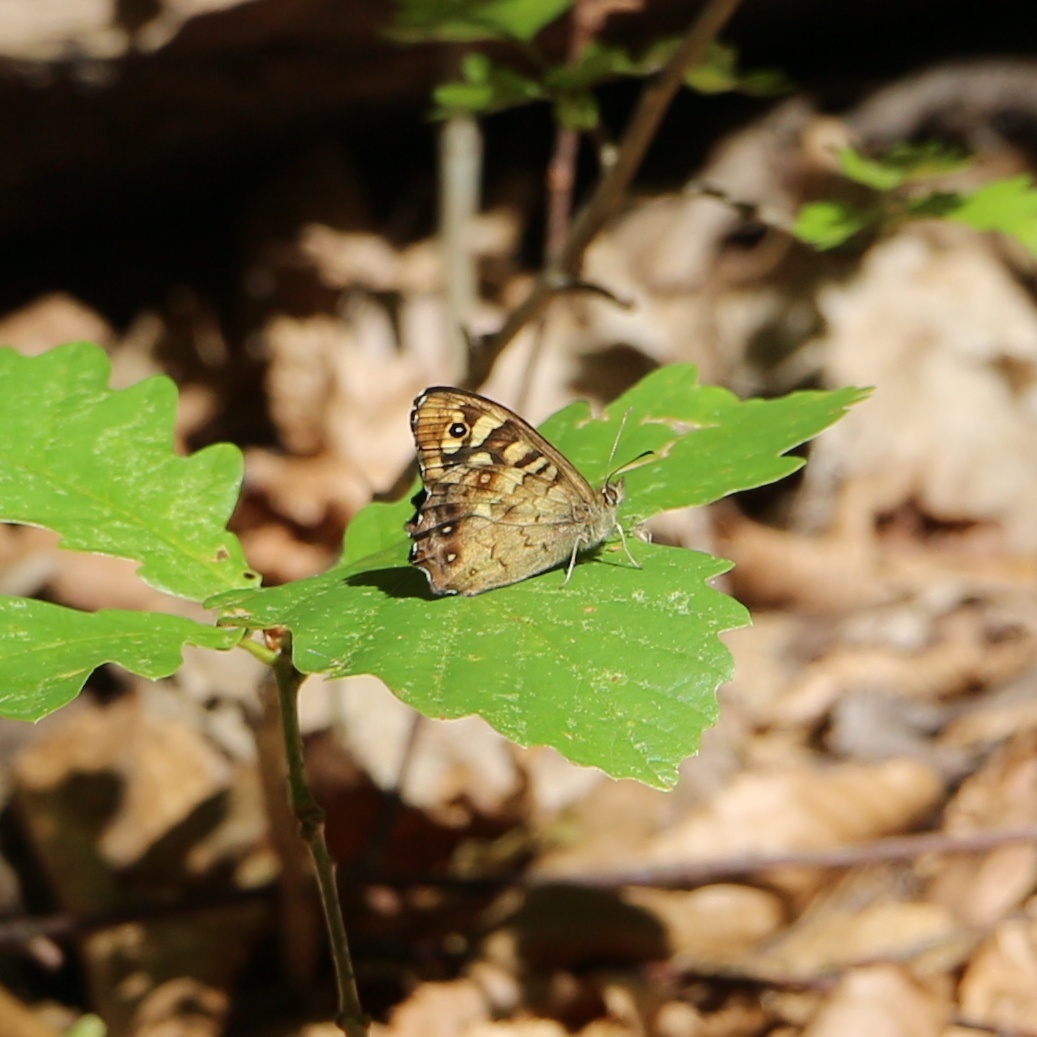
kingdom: Animalia
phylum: Arthropoda
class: Insecta
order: Lepidoptera
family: Nymphalidae
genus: Pararge
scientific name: Pararge aegeria
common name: Speckled wood
